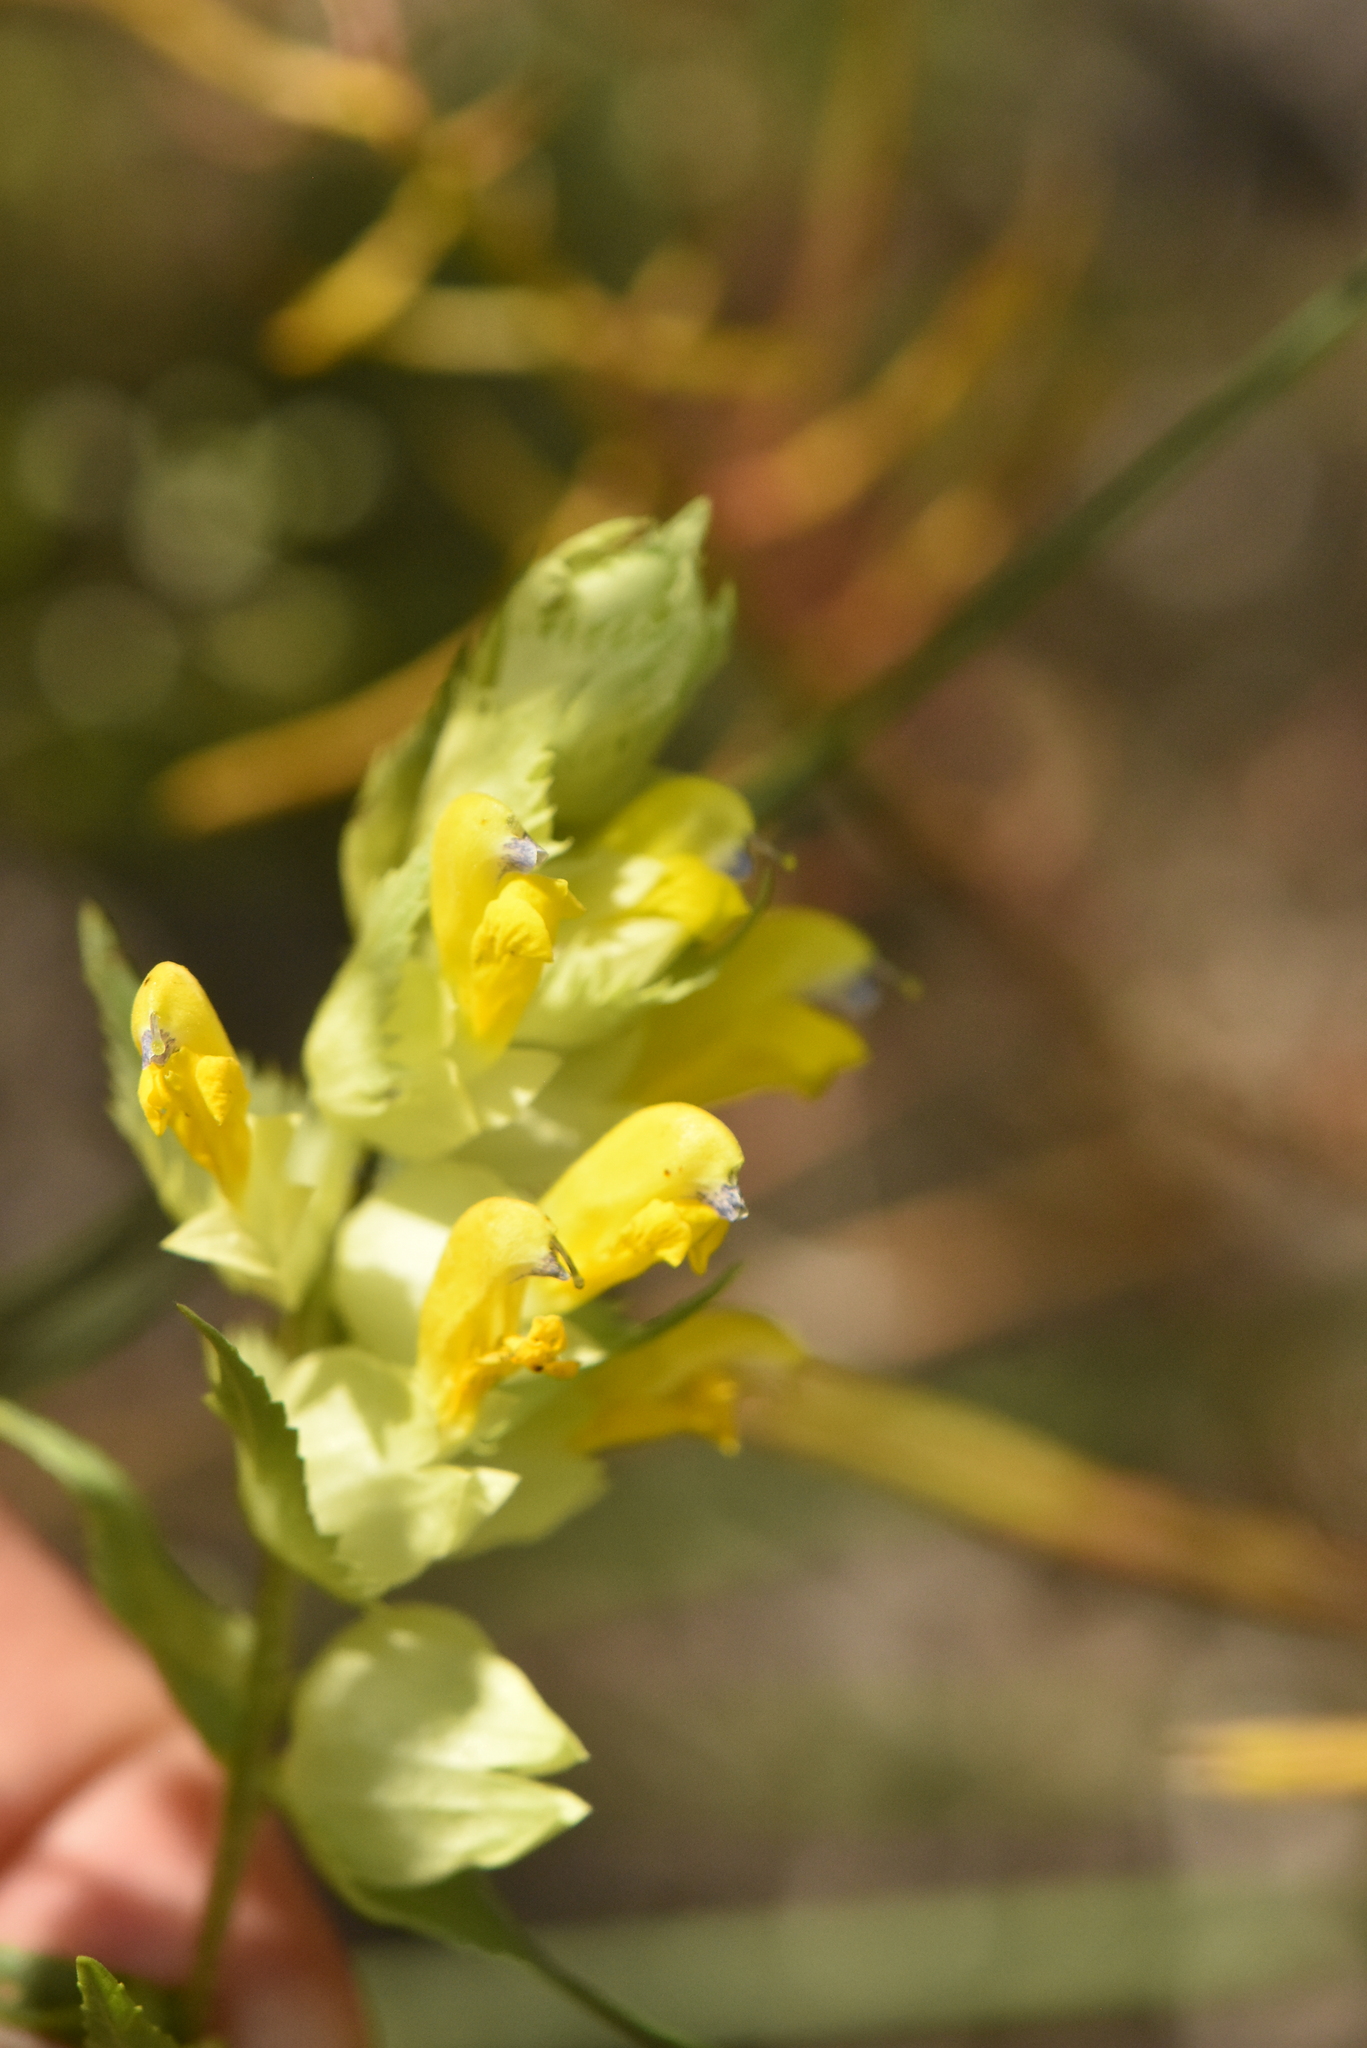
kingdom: Plantae
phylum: Tracheophyta
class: Magnoliopsida
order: Lamiales
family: Orobanchaceae
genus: Rhinanthus
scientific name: Rhinanthus serotinus
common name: Late-flowering yellow rattle
